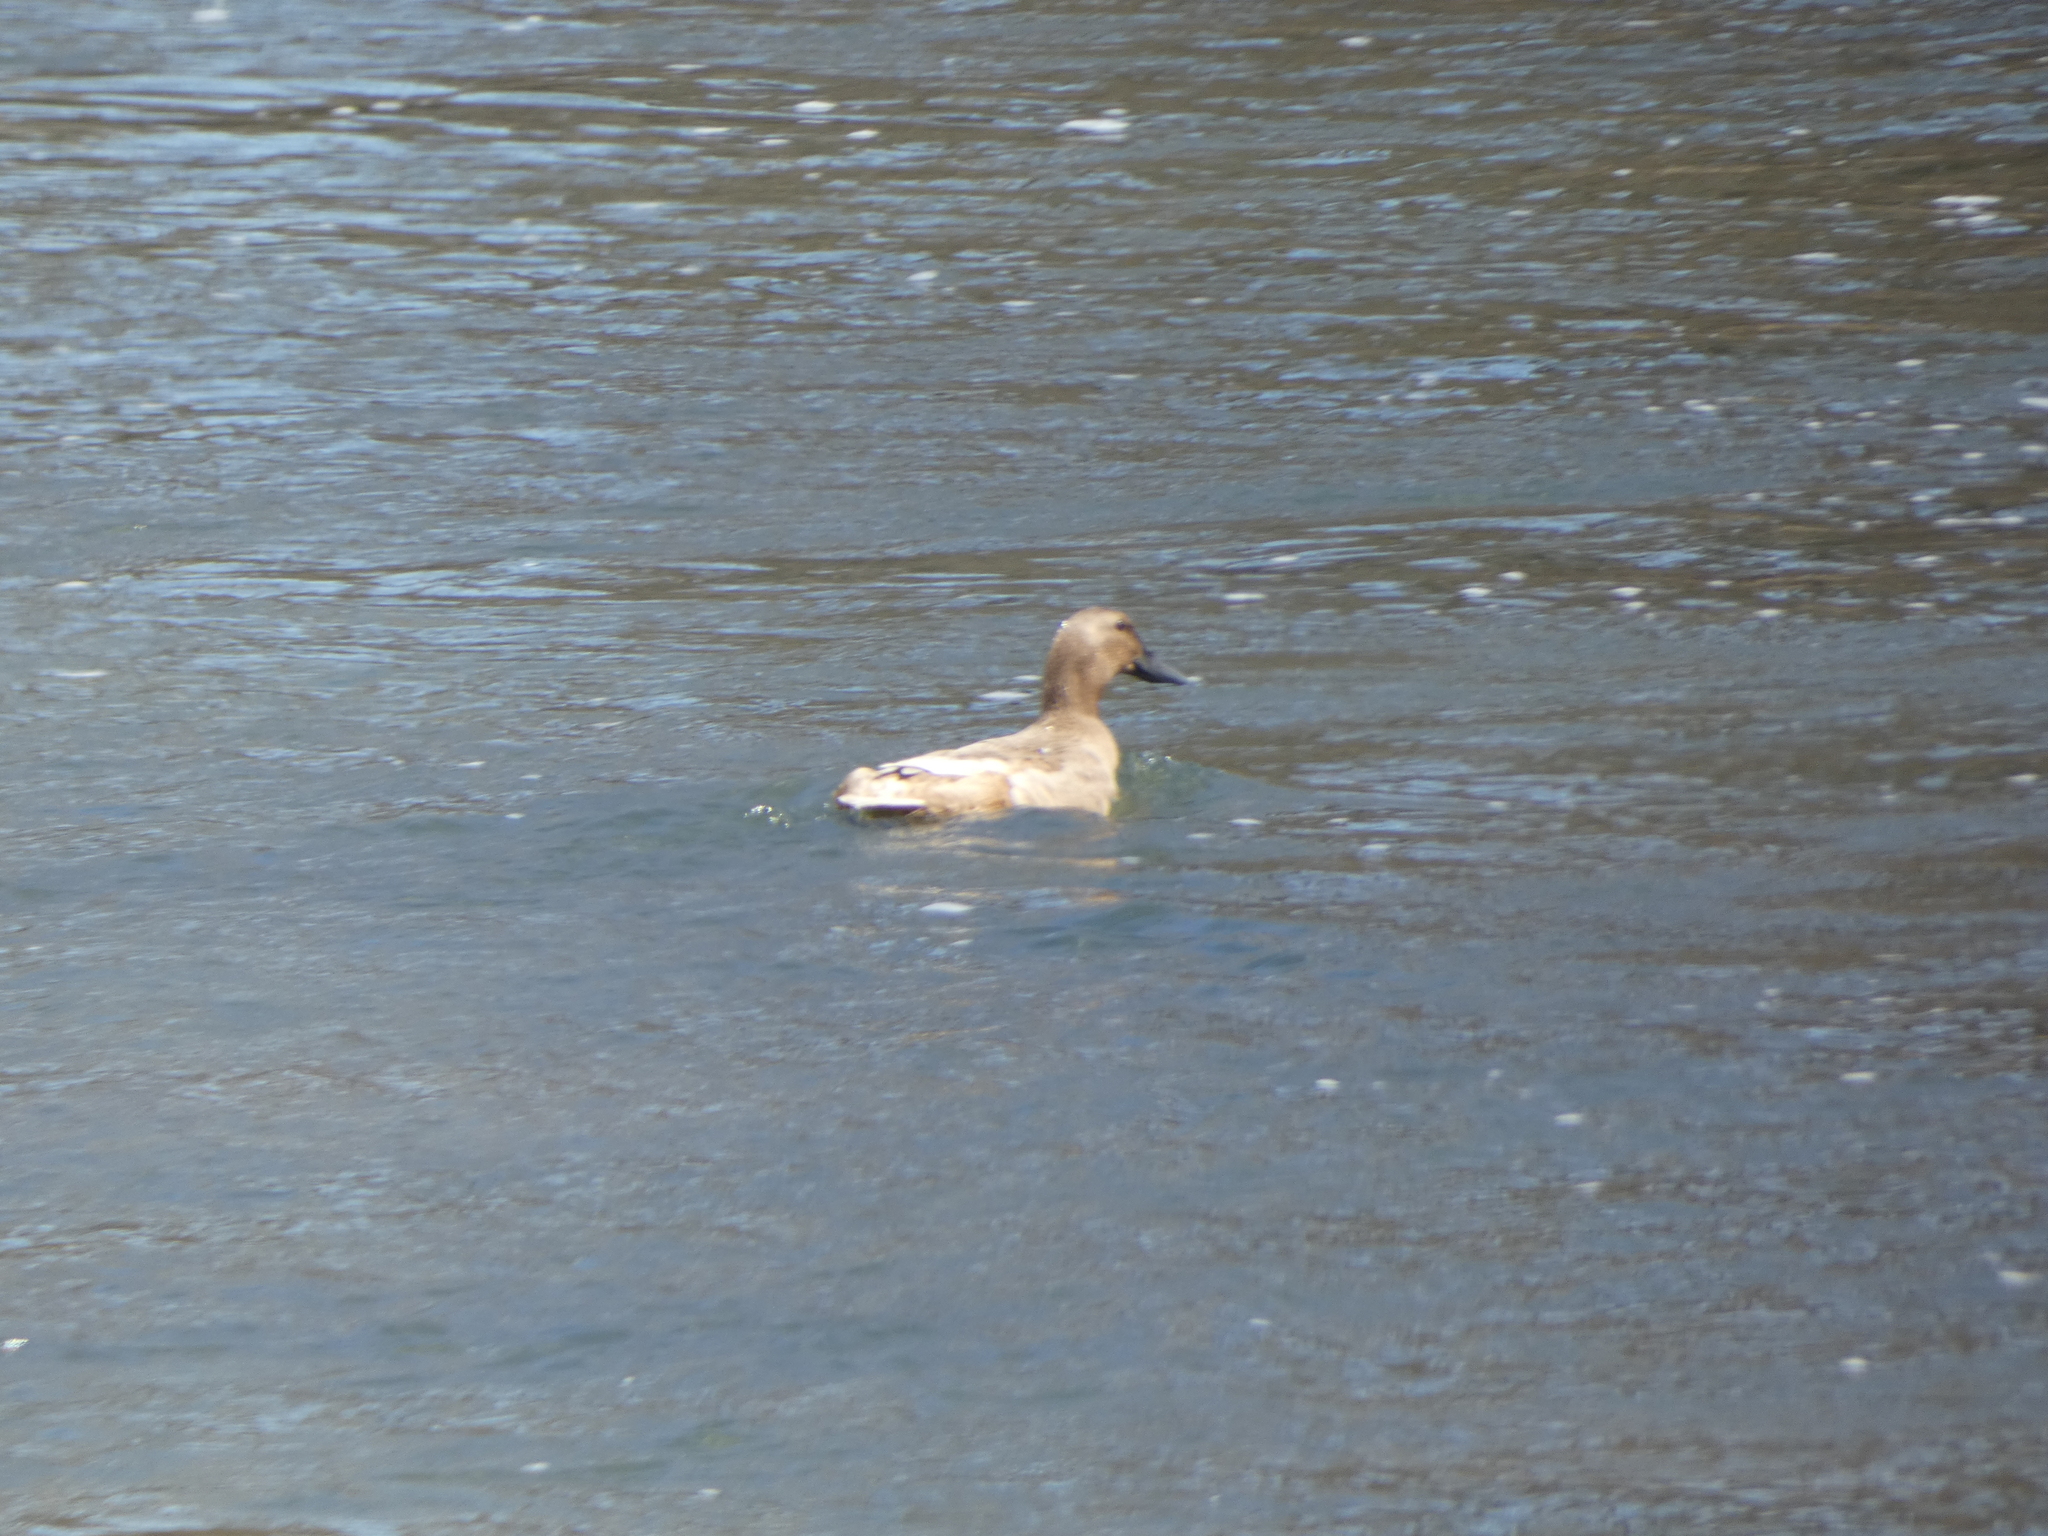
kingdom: Animalia
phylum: Chordata
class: Aves
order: Anseriformes
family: Anatidae
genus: Anas
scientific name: Anas platyrhynchos
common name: Mallard
